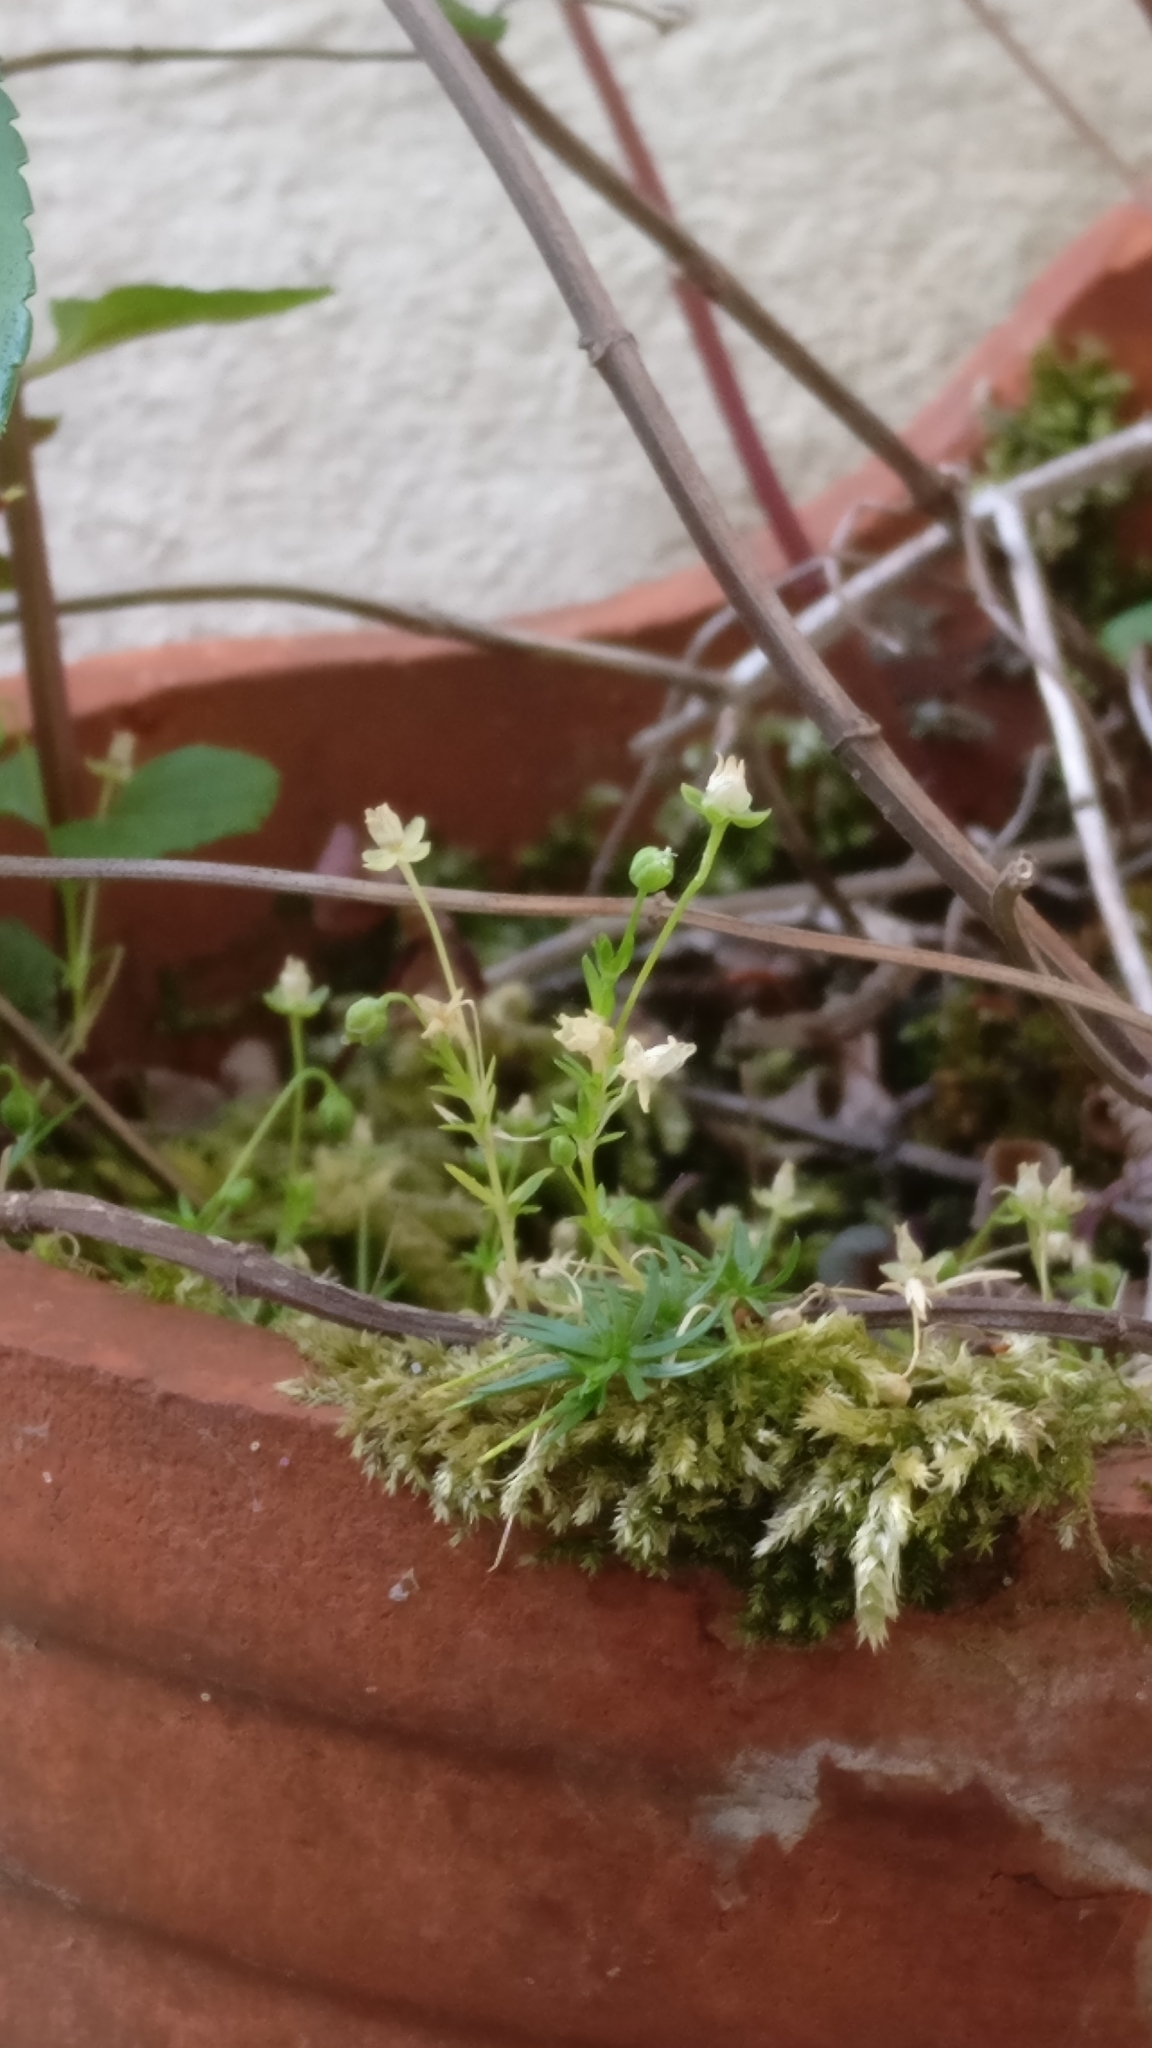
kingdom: Plantae
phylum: Tracheophyta
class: Magnoliopsida
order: Caryophyllales
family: Caryophyllaceae
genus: Sagina
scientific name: Sagina procumbens
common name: Procumbent pearlwort
